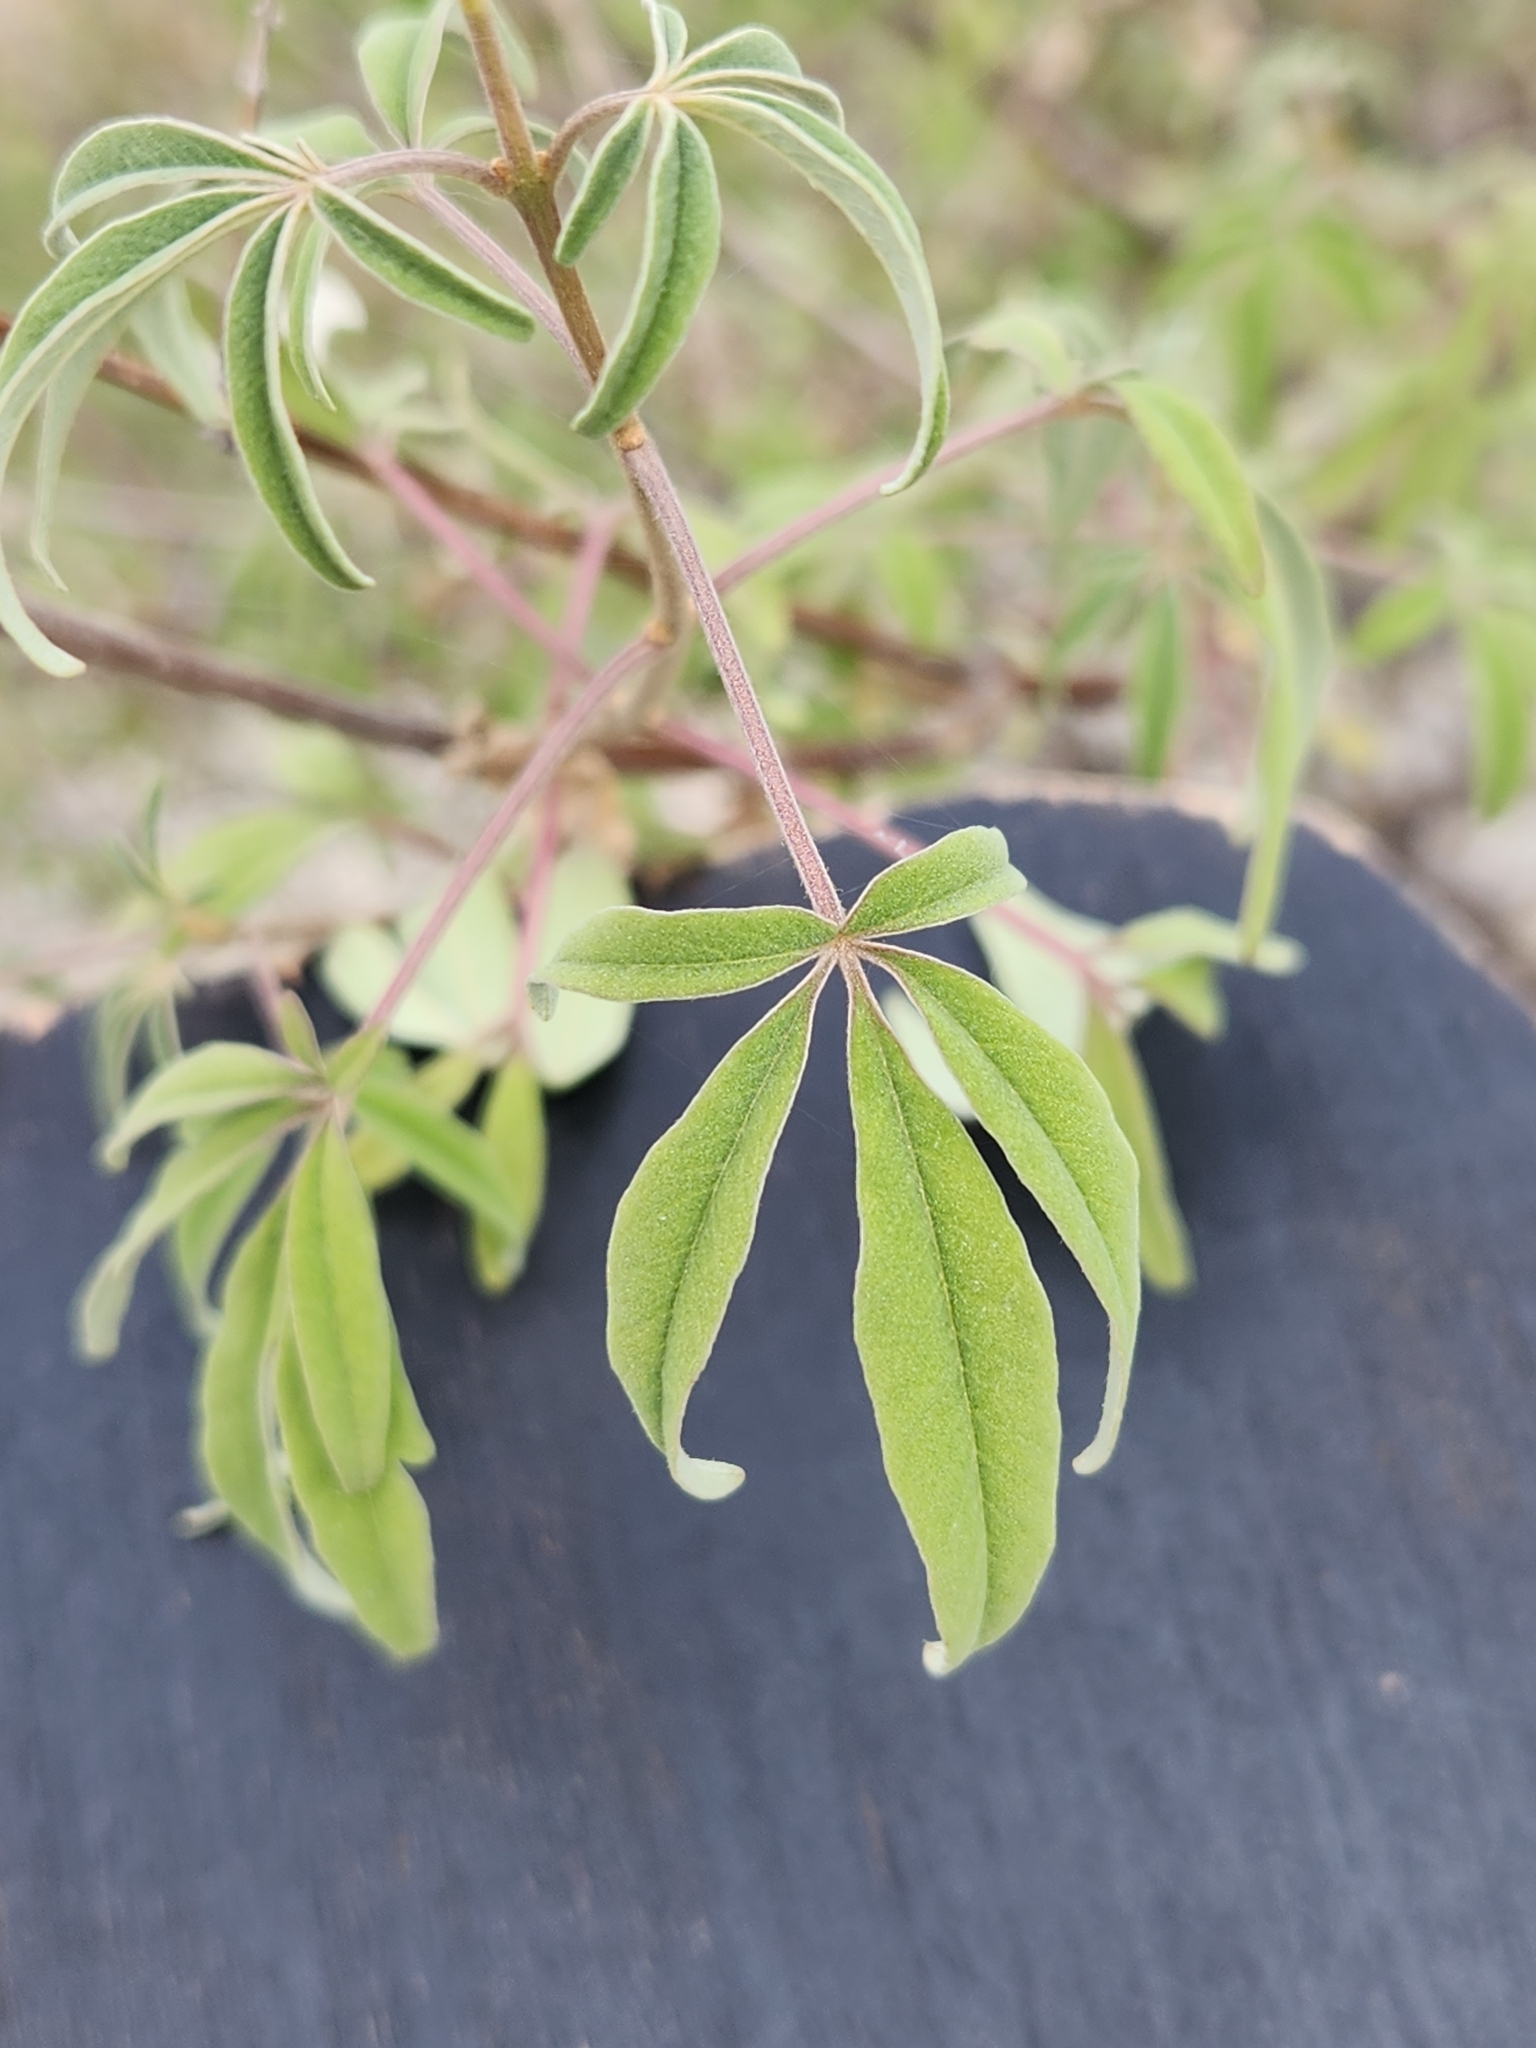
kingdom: Plantae
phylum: Tracheophyta
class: Magnoliopsida
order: Lamiales
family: Lamiaceae
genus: Vitex
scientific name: Vitex agnus-castus
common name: Chasteberry
